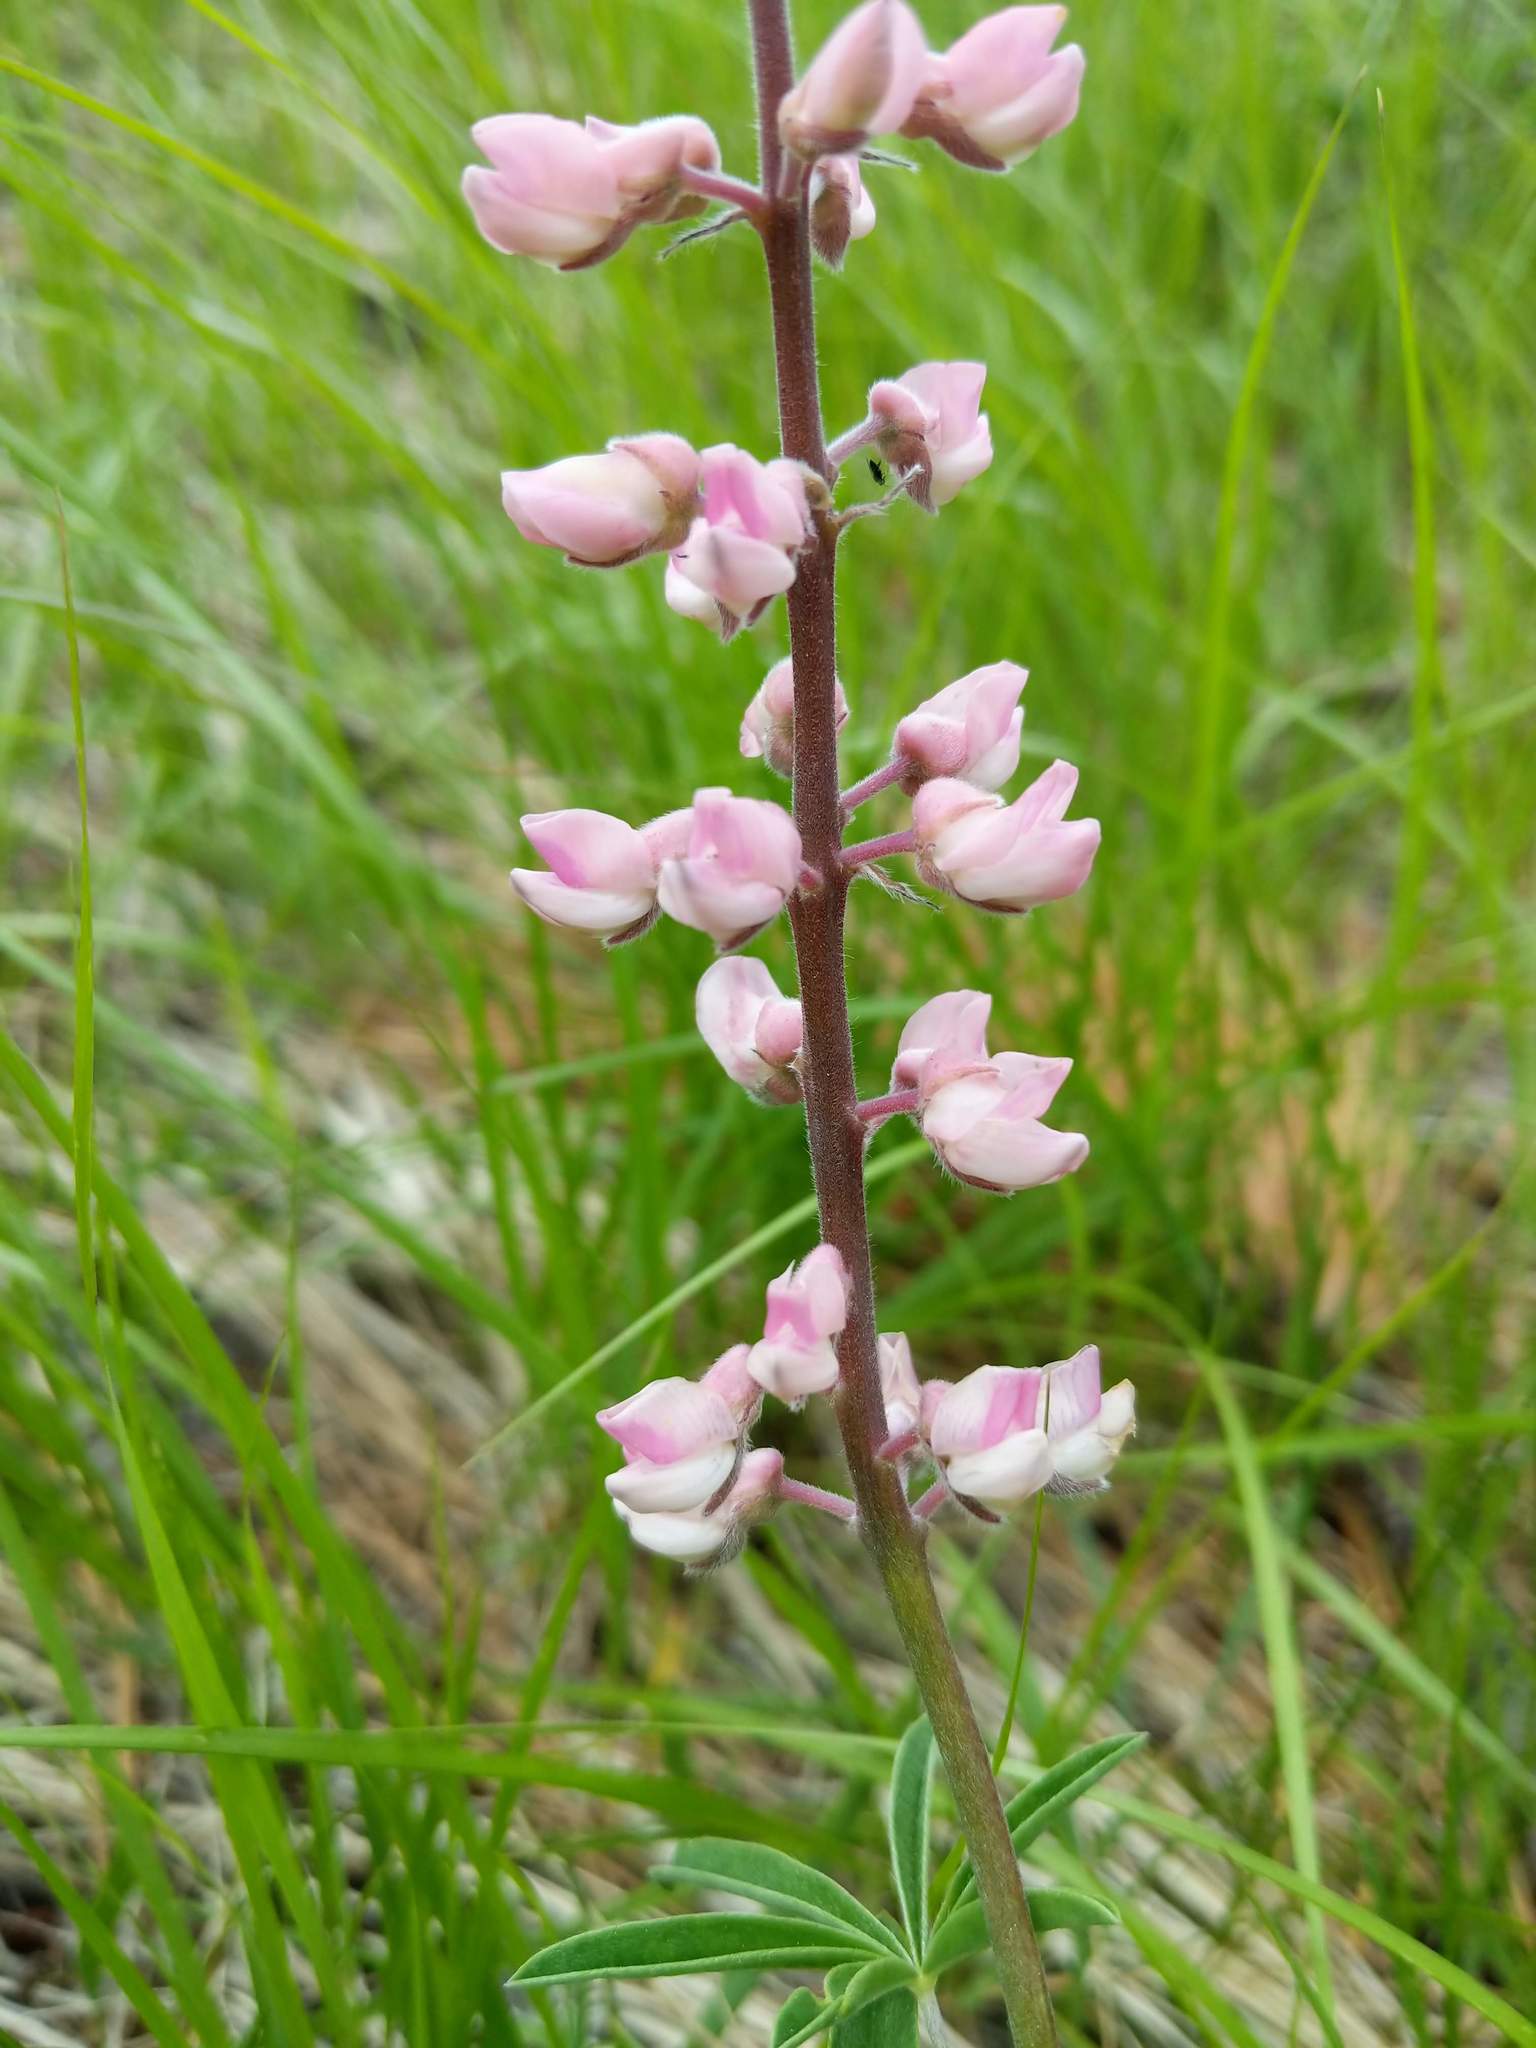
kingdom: Plantae
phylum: Tracheophyta
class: Magnoliopsida
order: Fabales
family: Fabaceae
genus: Lupinus
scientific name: Lupinus arbustus
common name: Montana lupine
